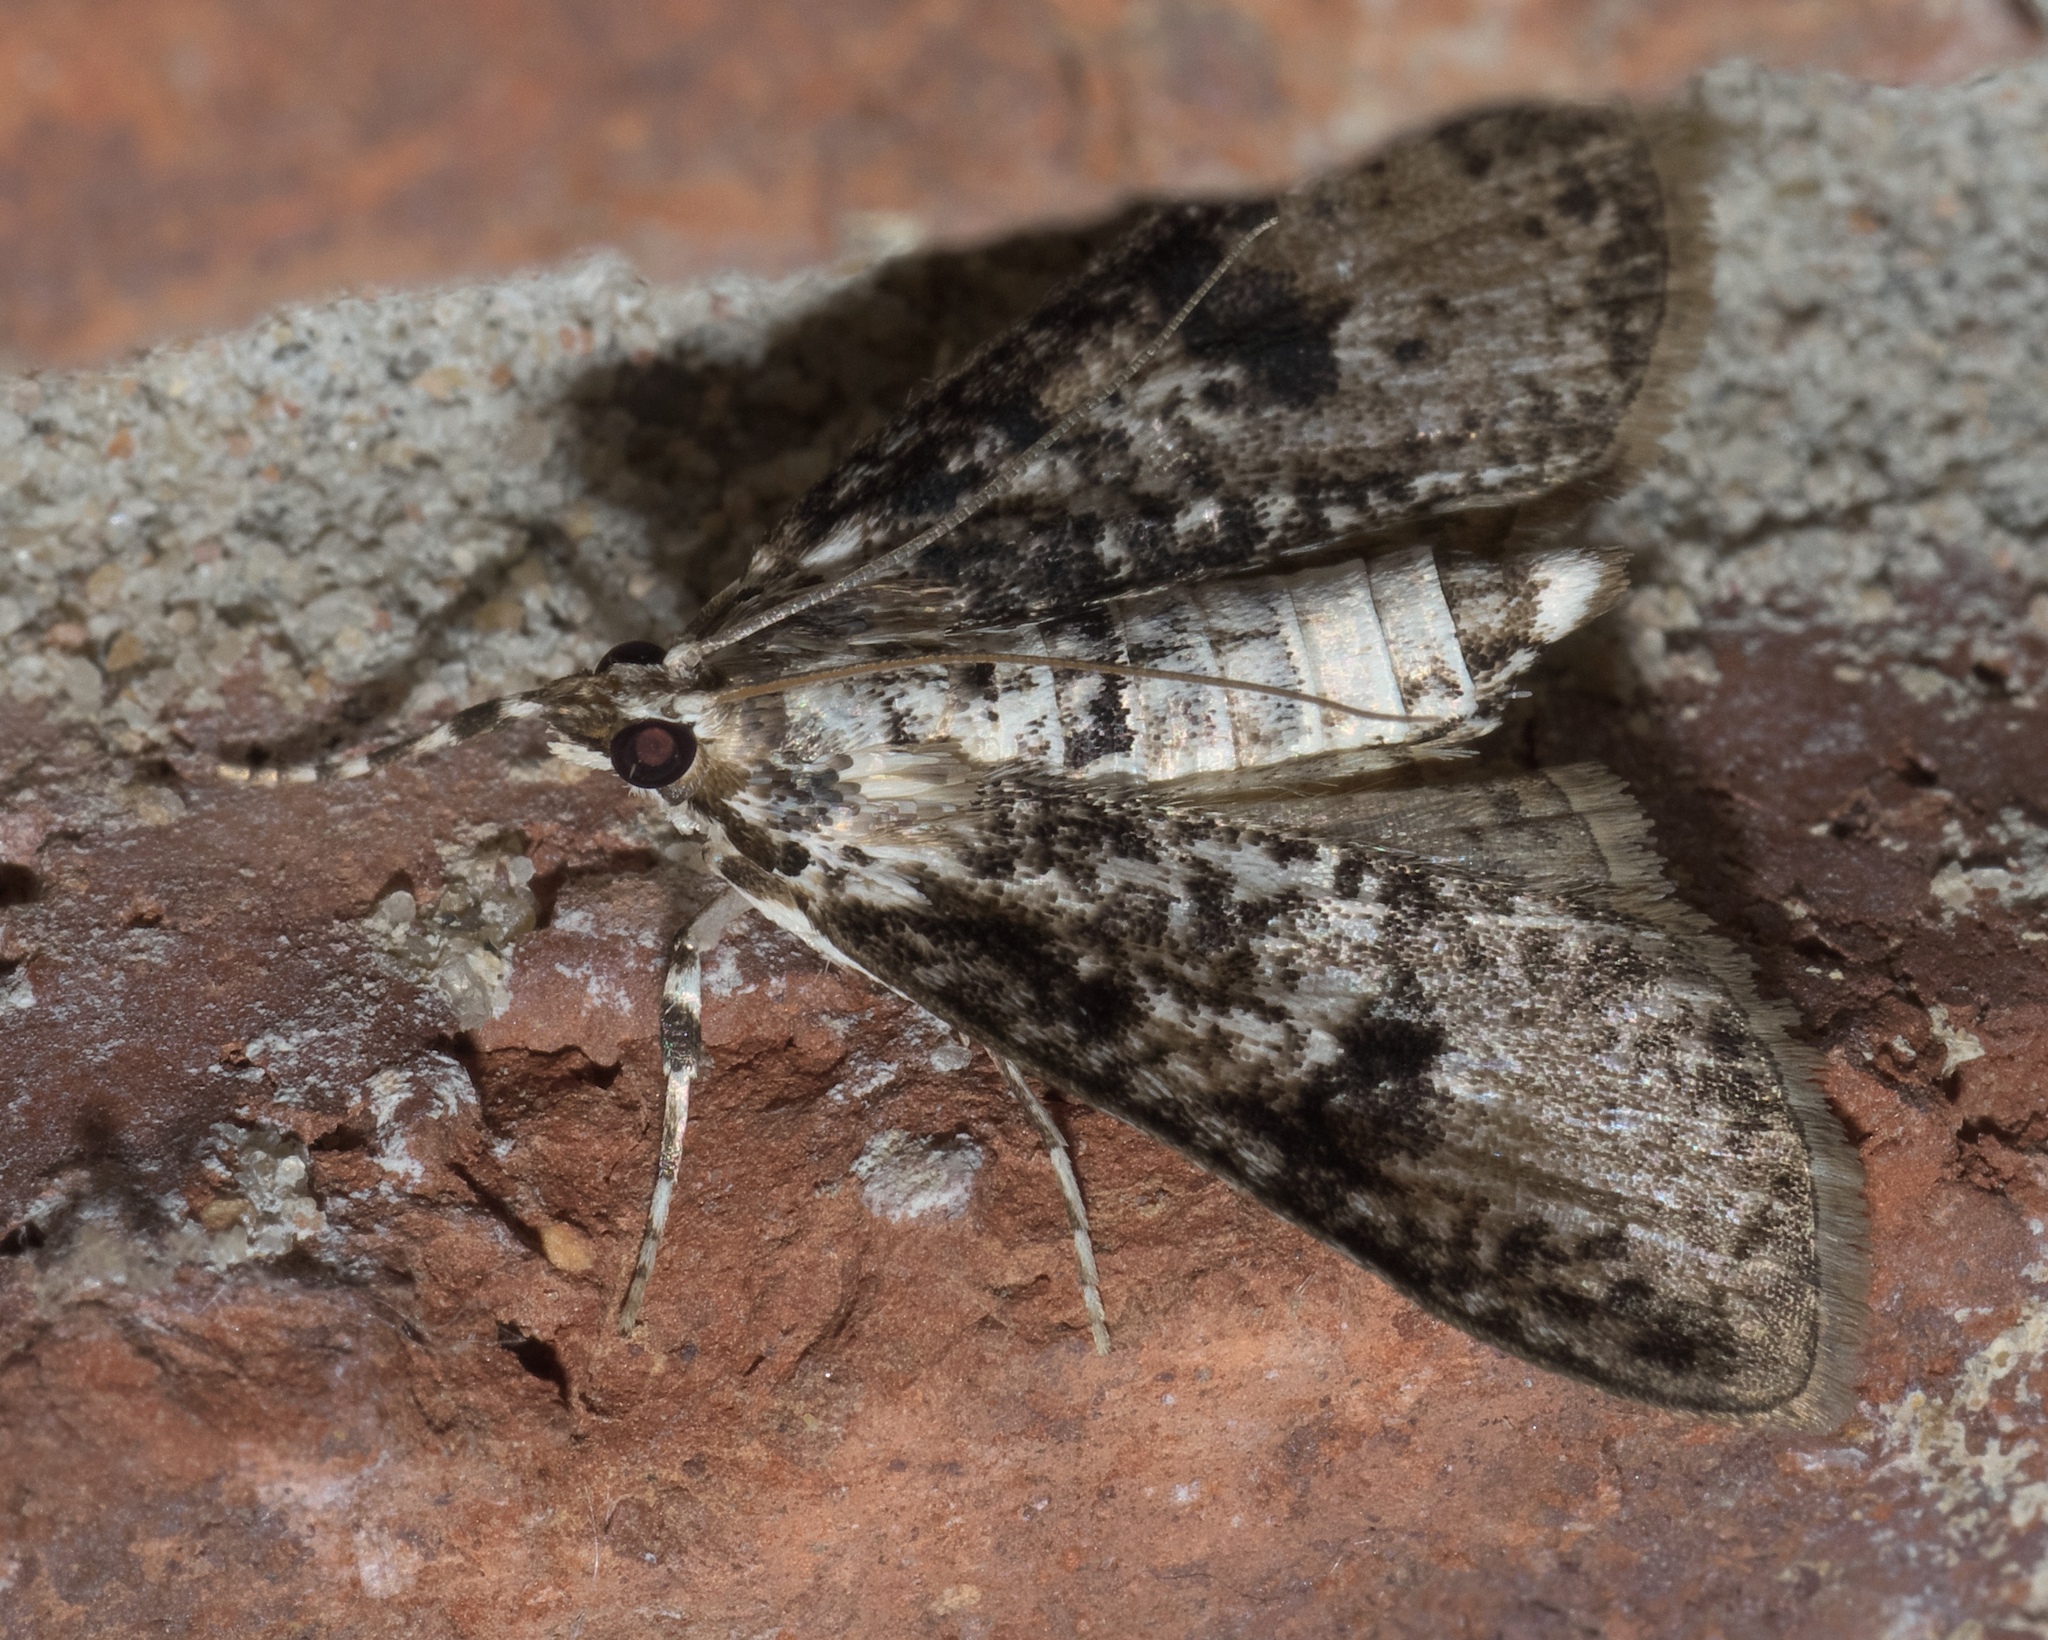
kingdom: Animalia
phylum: Arthropoda
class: Insecta
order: Lepidoptera
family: Crambidae
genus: Palpita
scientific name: Palpita magniferalis
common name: Splendid palpita moth
